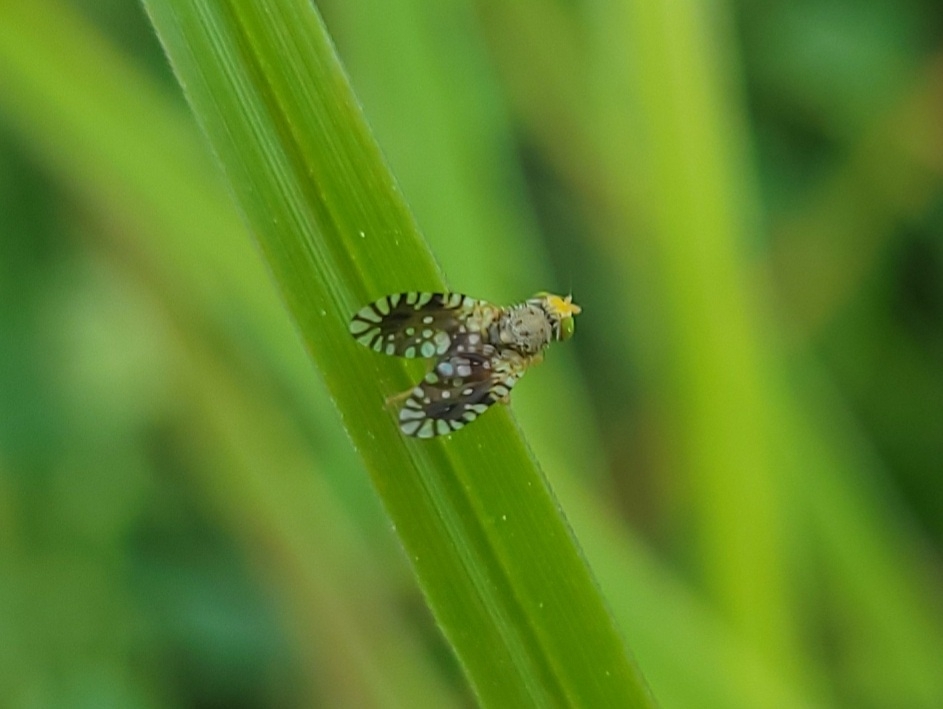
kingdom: Animalia
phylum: Arthropoda
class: Insecta
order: Diptera
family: Tephritidae
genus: Euaresta
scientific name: Euaresta bella
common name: Common ragweed fruit fly
